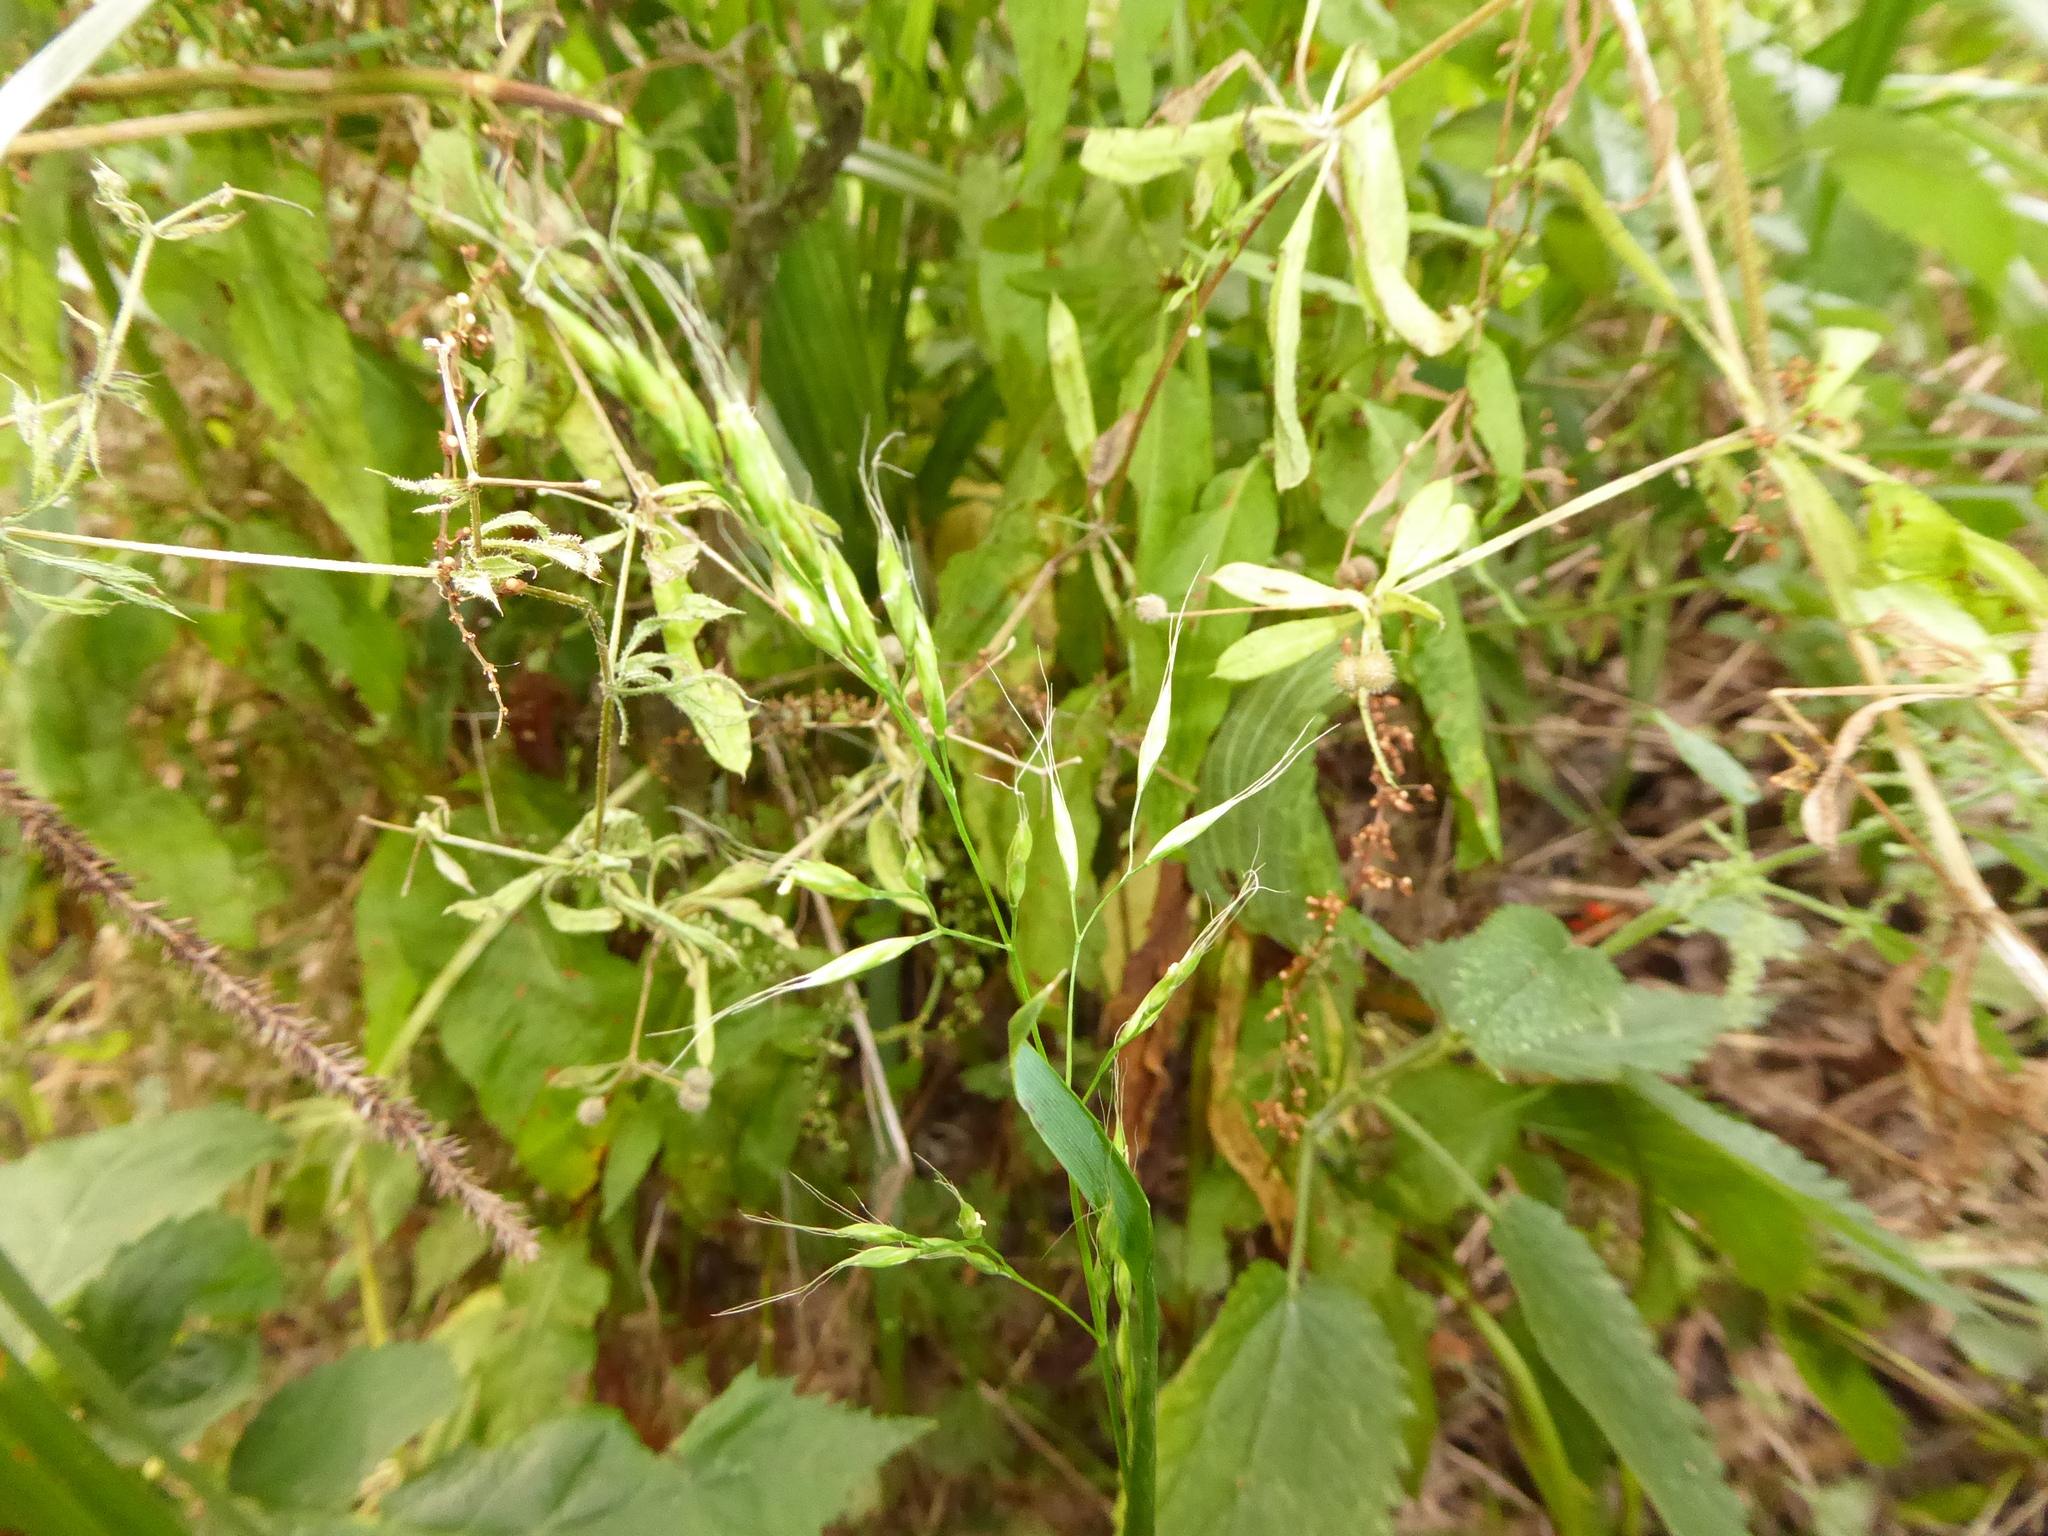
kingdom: Plantae
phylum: Tracheophyta
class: Liliopsida
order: Poales
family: Poaceae
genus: Lolium
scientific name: Lolium giganteum
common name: Giant fescue
